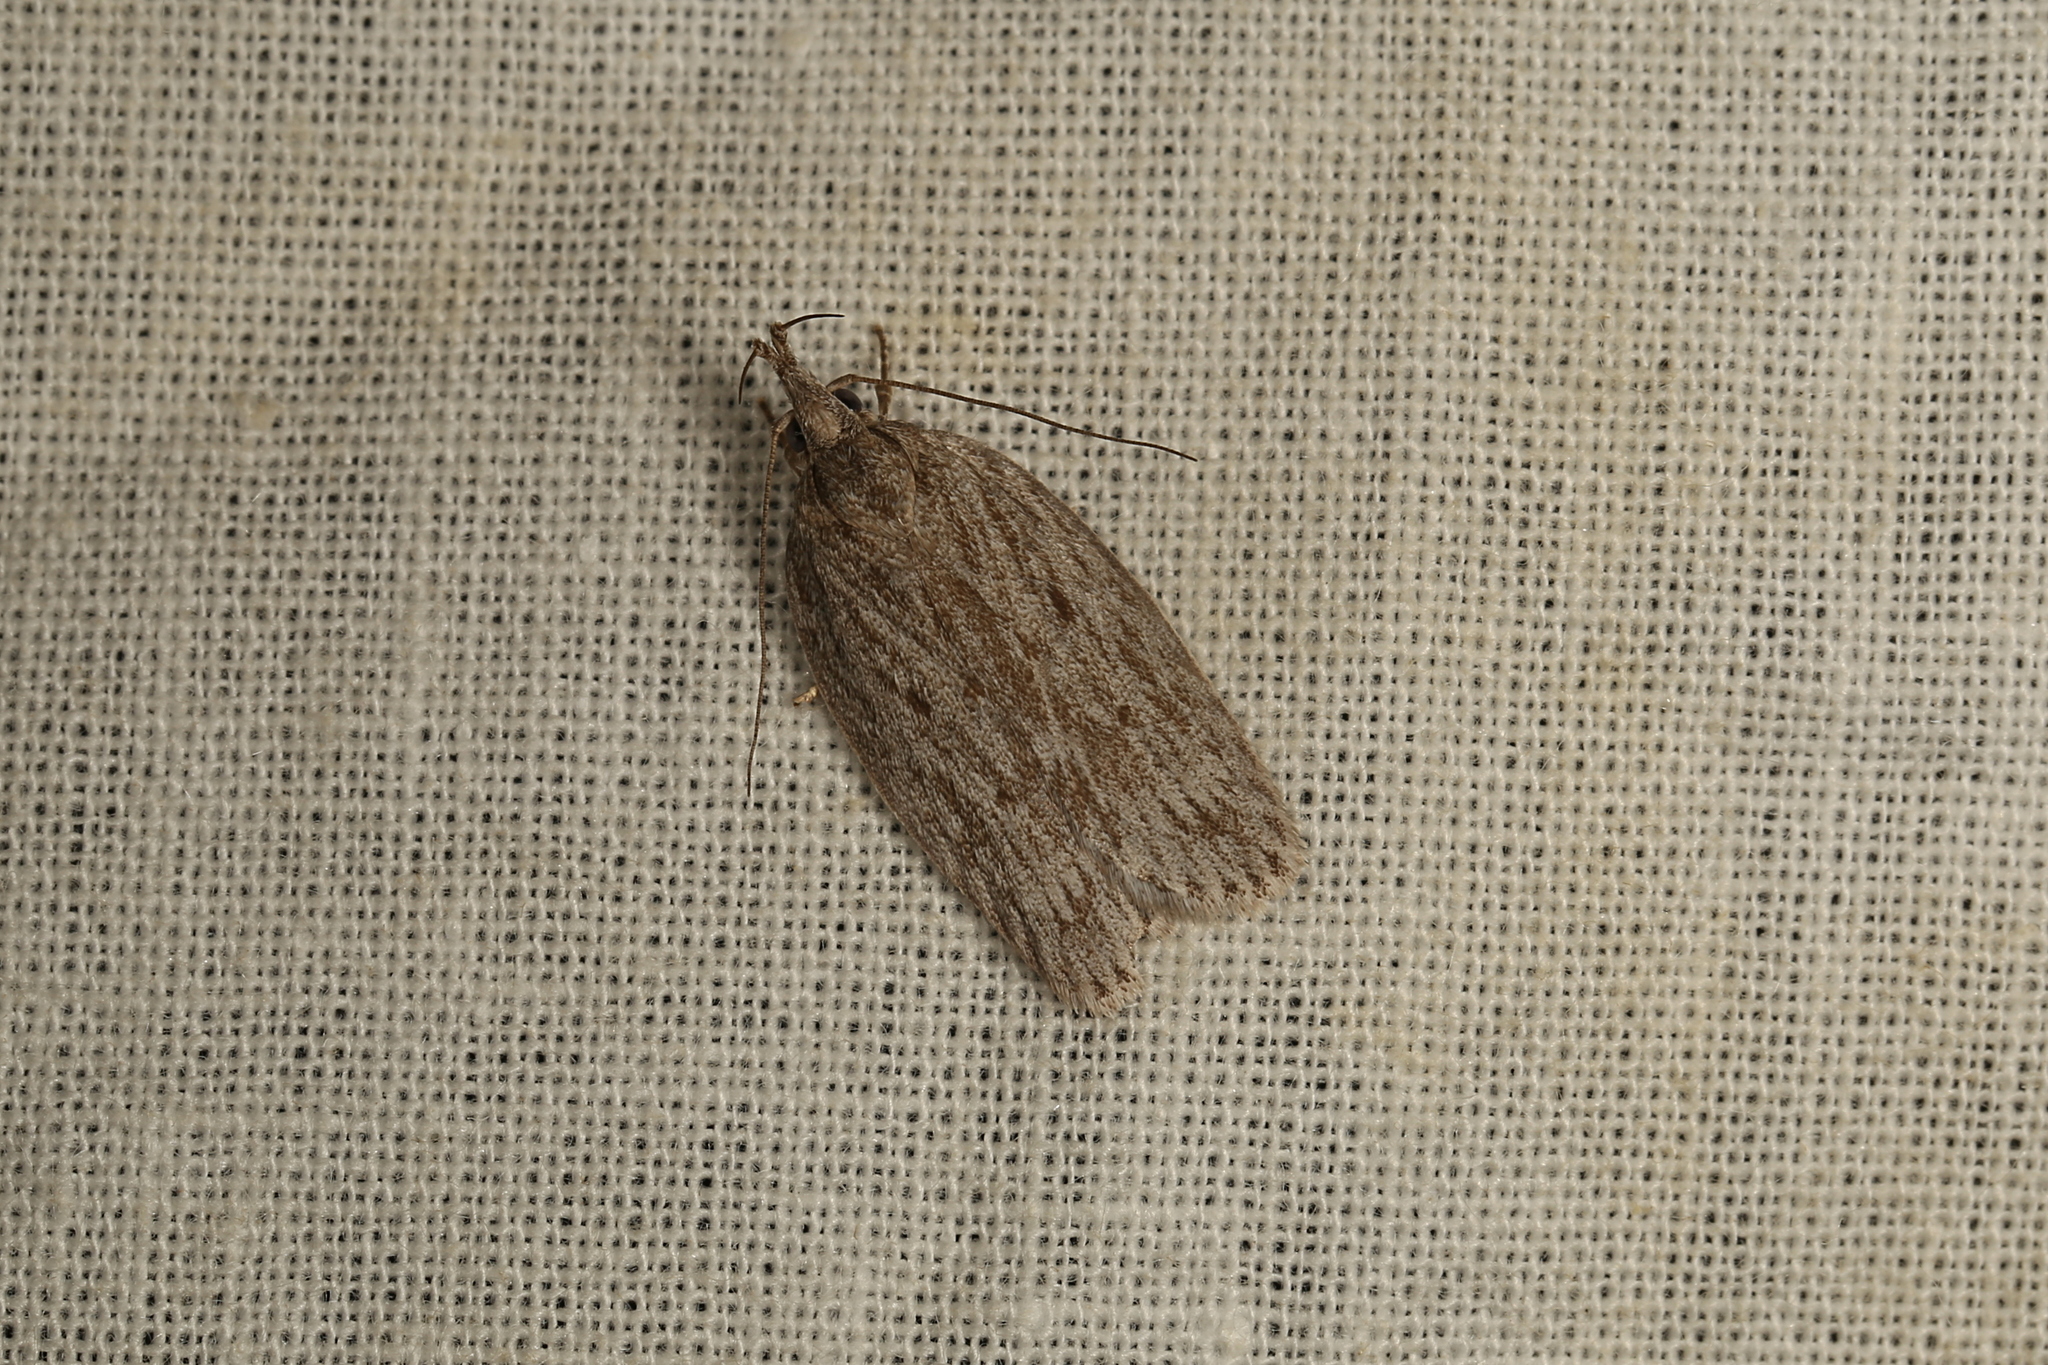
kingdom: Animalia
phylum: Arthropoda
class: Insecta
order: Lepidoptera
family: Depressariidae
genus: Pedois
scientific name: Pedois lewinella
